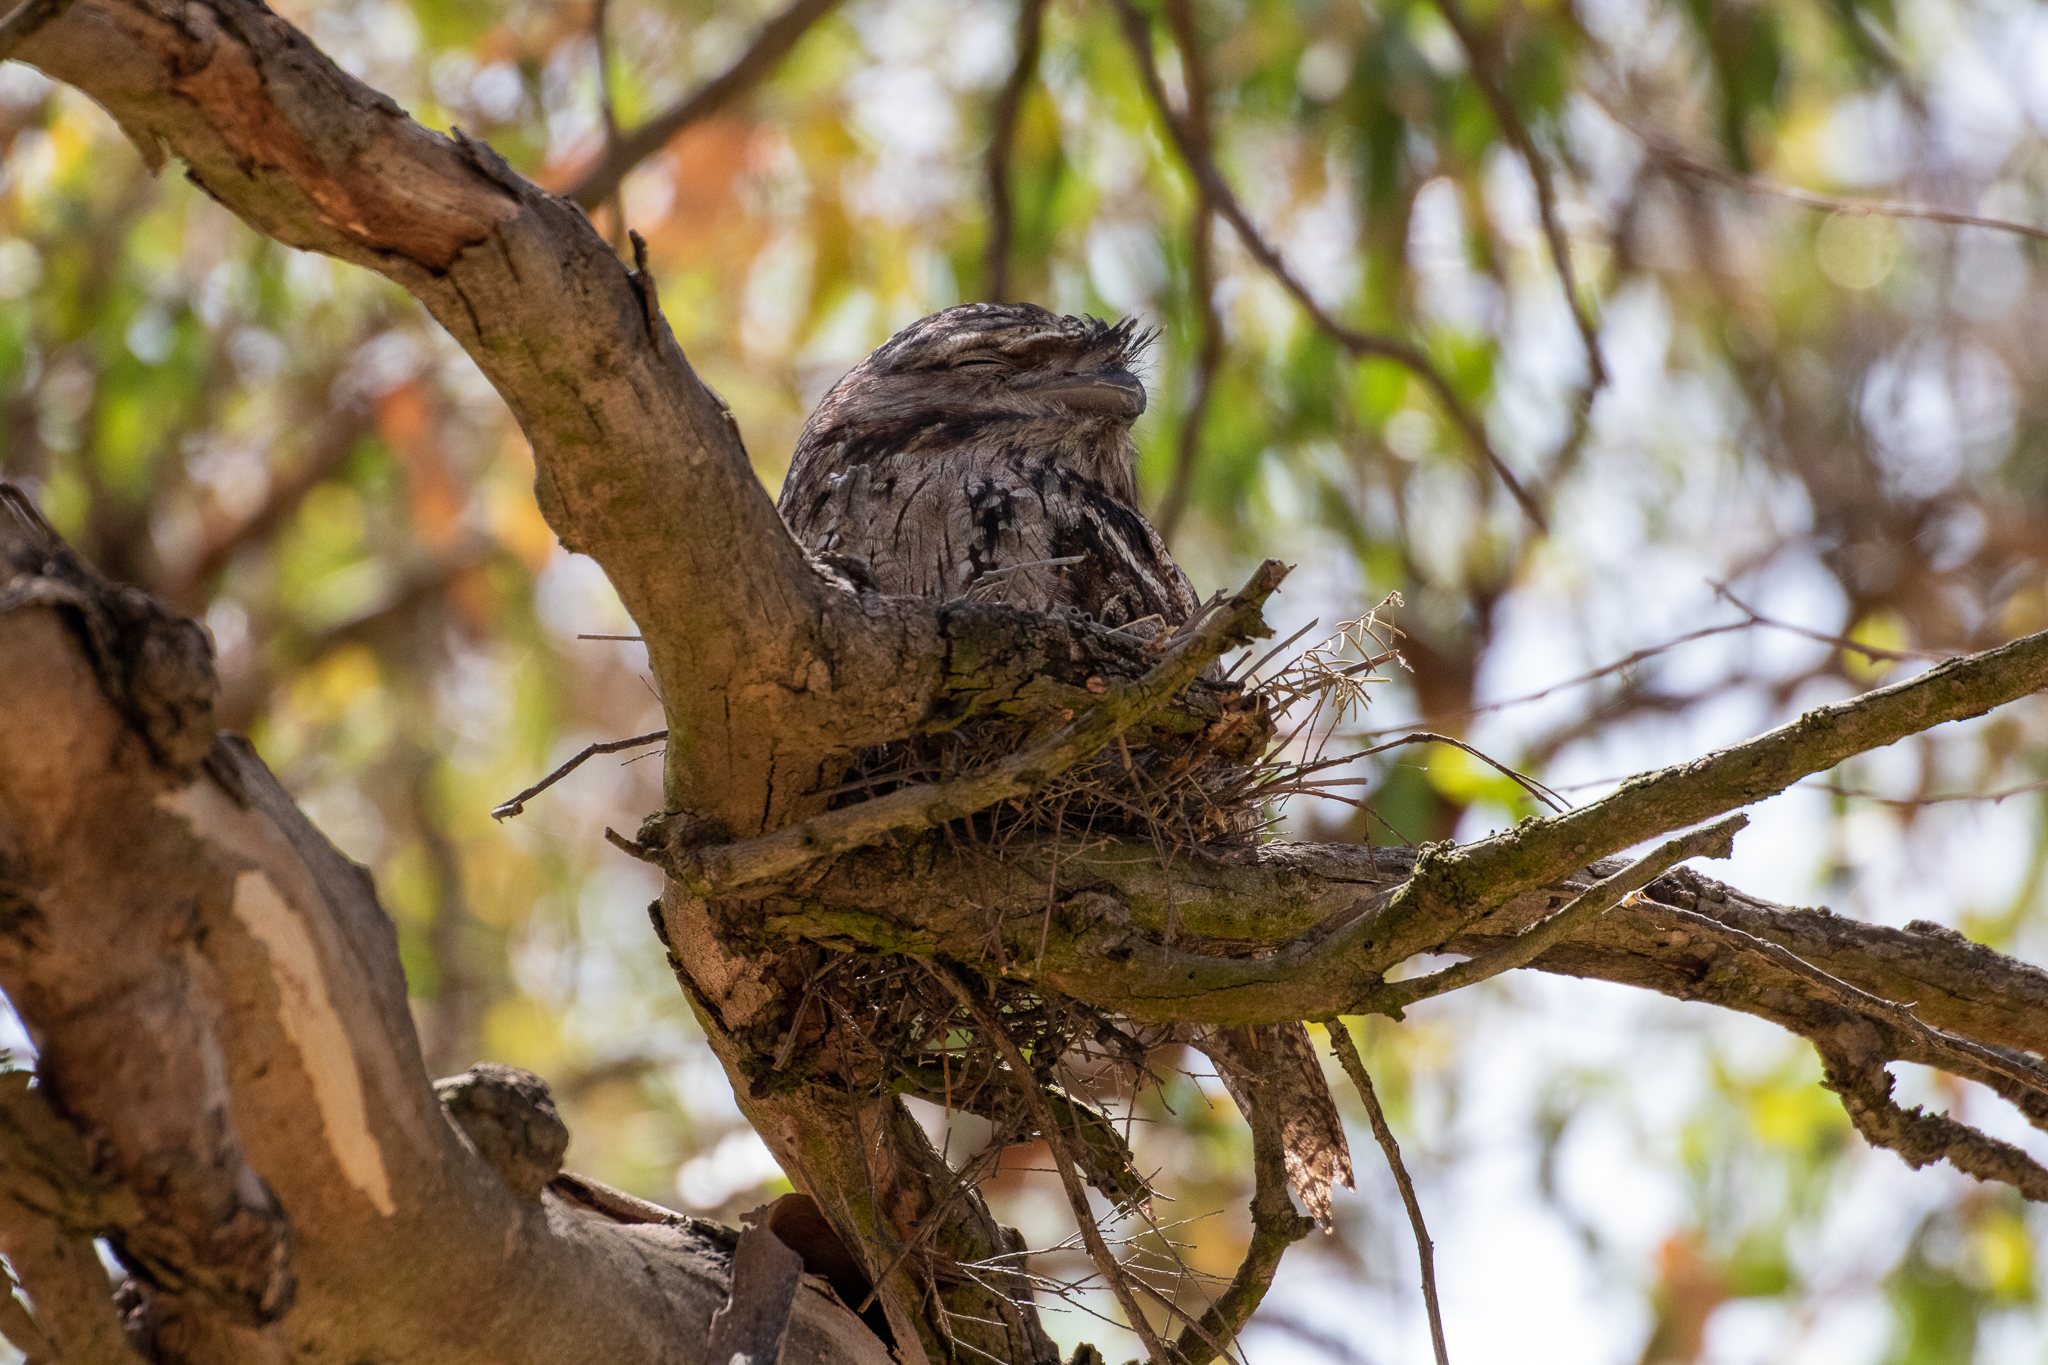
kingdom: Animalia
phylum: Chordata
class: Aves
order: Caprimulgiformes
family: Podargidae
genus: Podargus
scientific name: Podargus strigoides
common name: Tawny frogmouth
